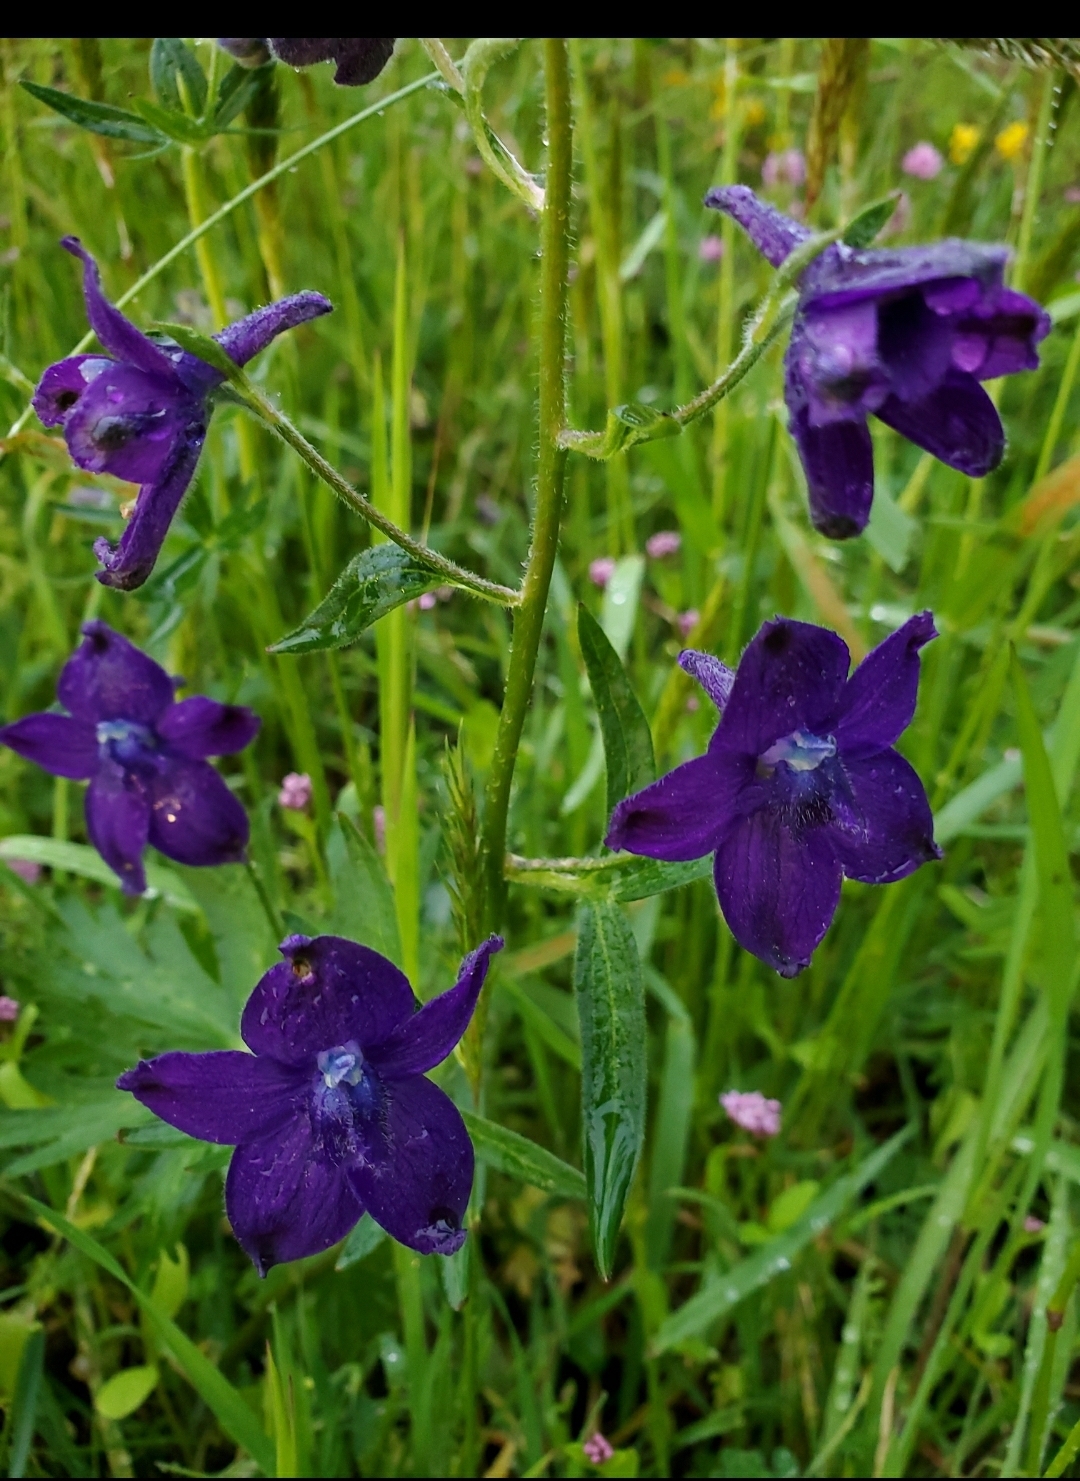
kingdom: Plantae
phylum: Tracheophyta
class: Magnoliopsida
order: Ranunculales
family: Ranunculaceae
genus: Delphinium
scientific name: Delphinium menziesii
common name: Menzies's larkspur
